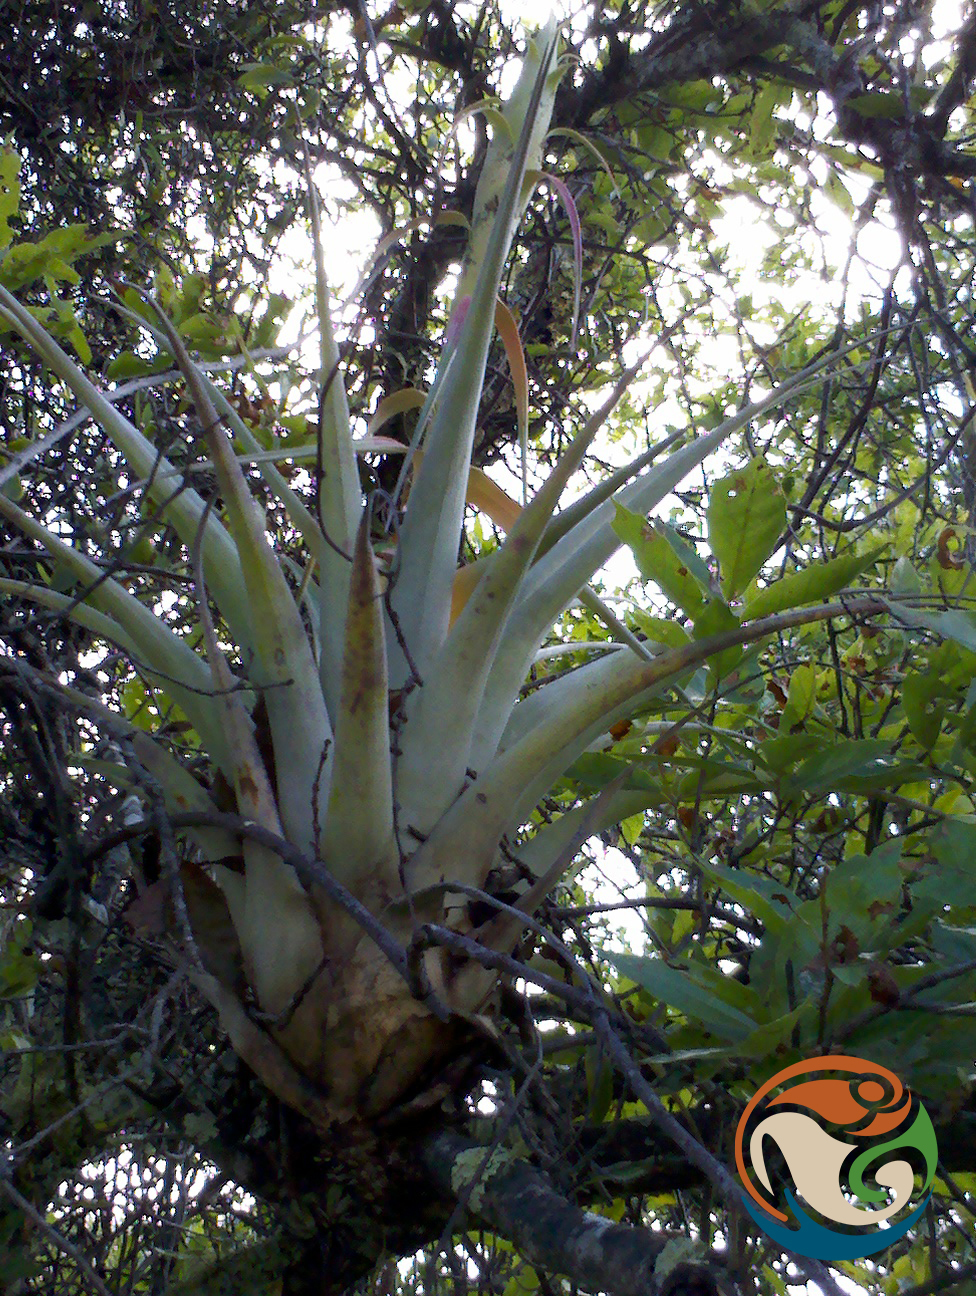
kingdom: Plantae
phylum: Tracheophyta
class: Liliopsida
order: Poales
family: Bromeliaceae
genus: Tillandsia
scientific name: Tillandsia prodigiosa
